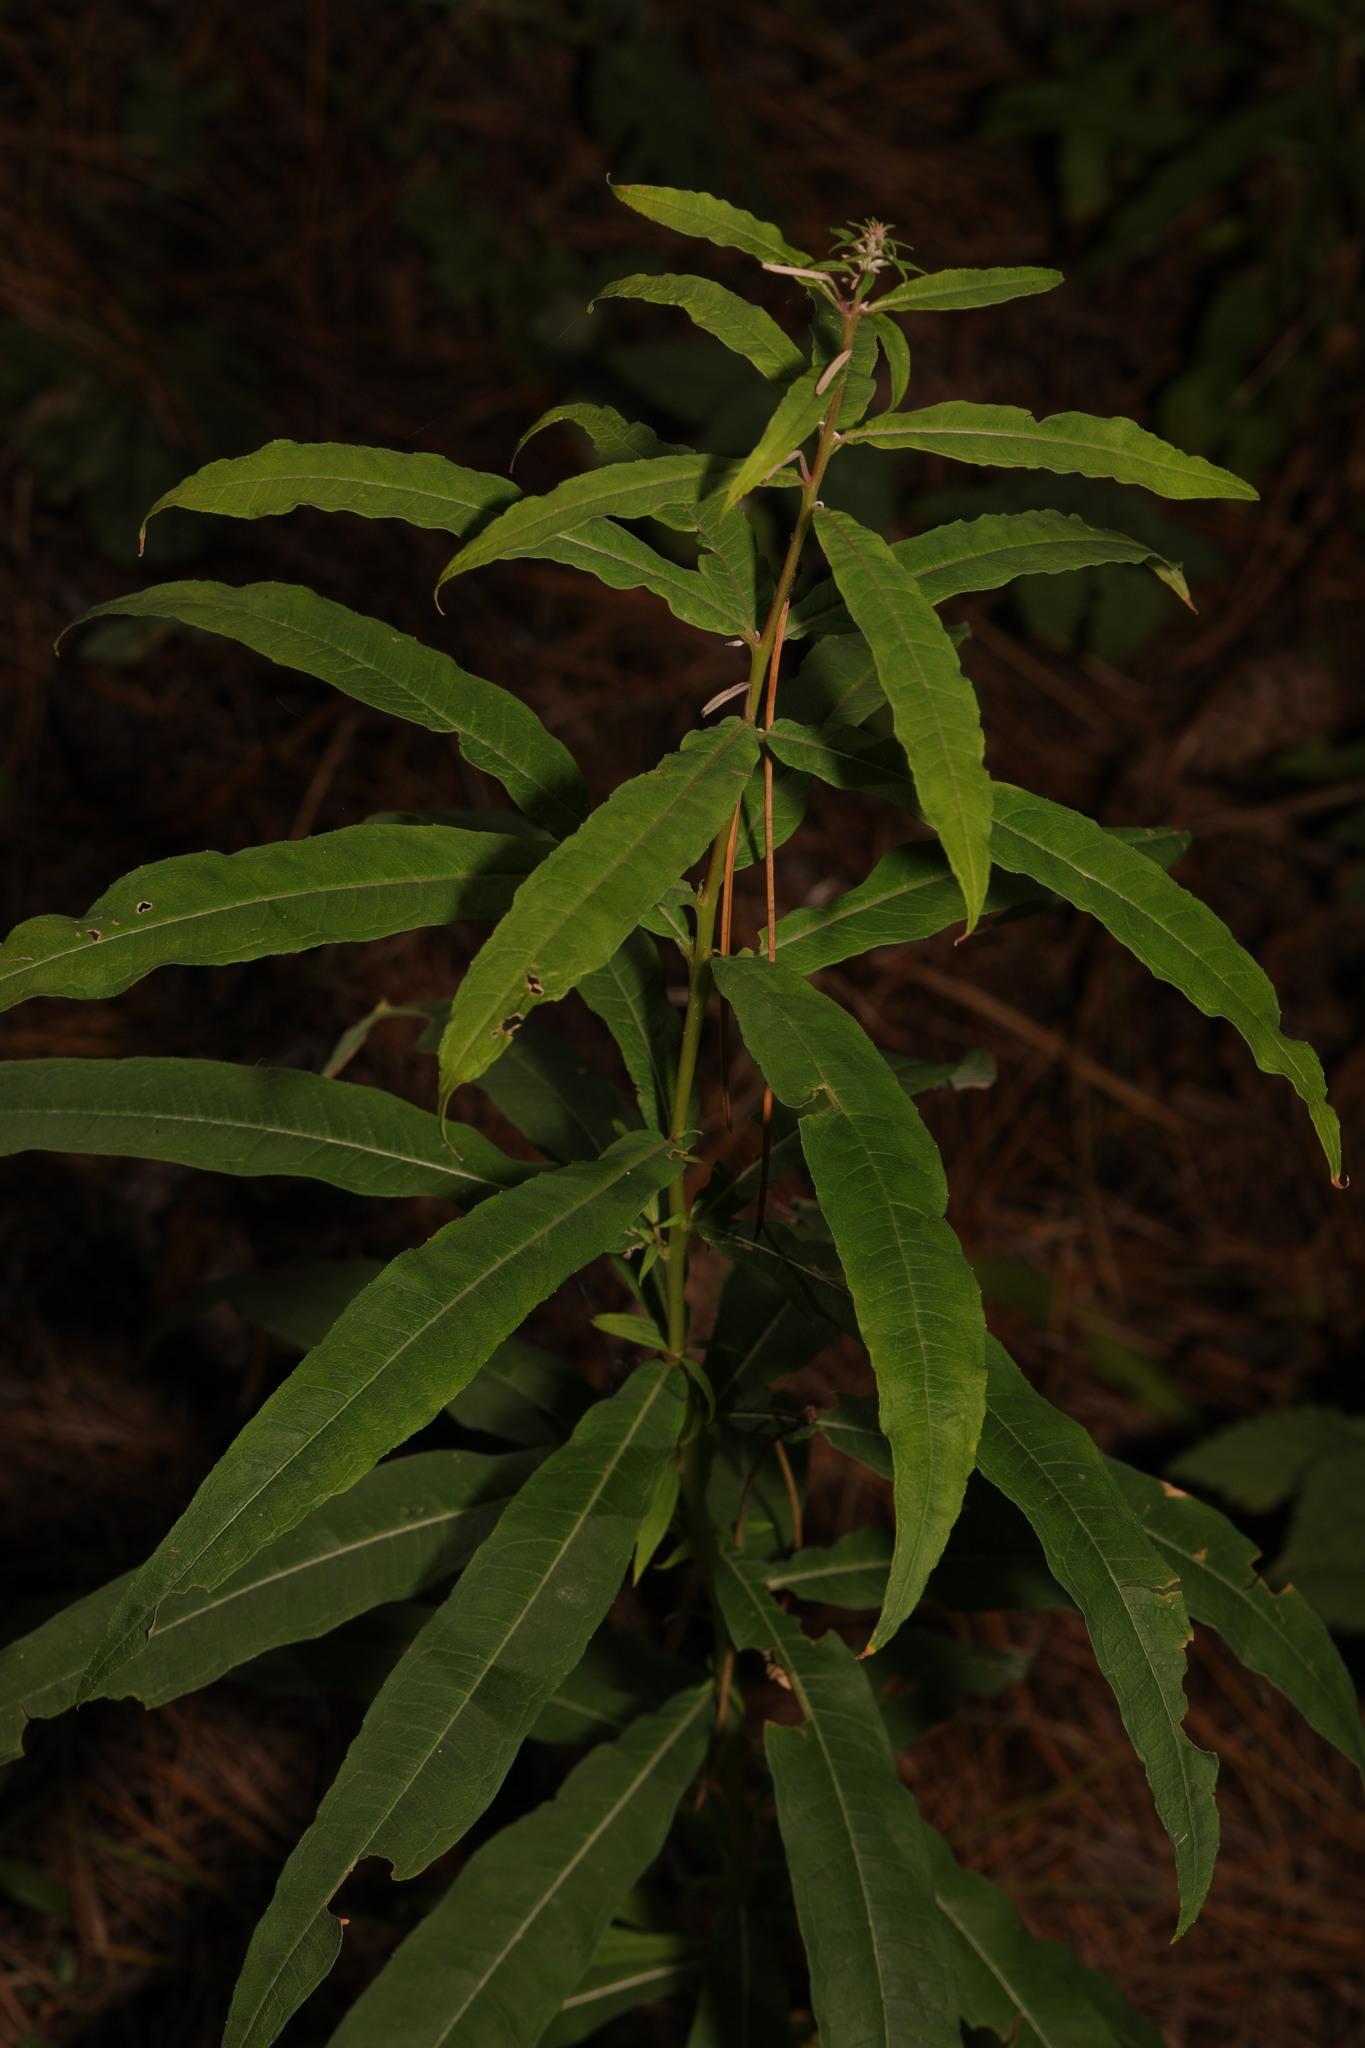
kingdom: Plantae
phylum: Tracheophyta
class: Magnoliopsida
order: Myrtales
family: Onagraceae
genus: Chamaenerion
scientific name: Chamaenerion angustifolium
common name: Fireweed
